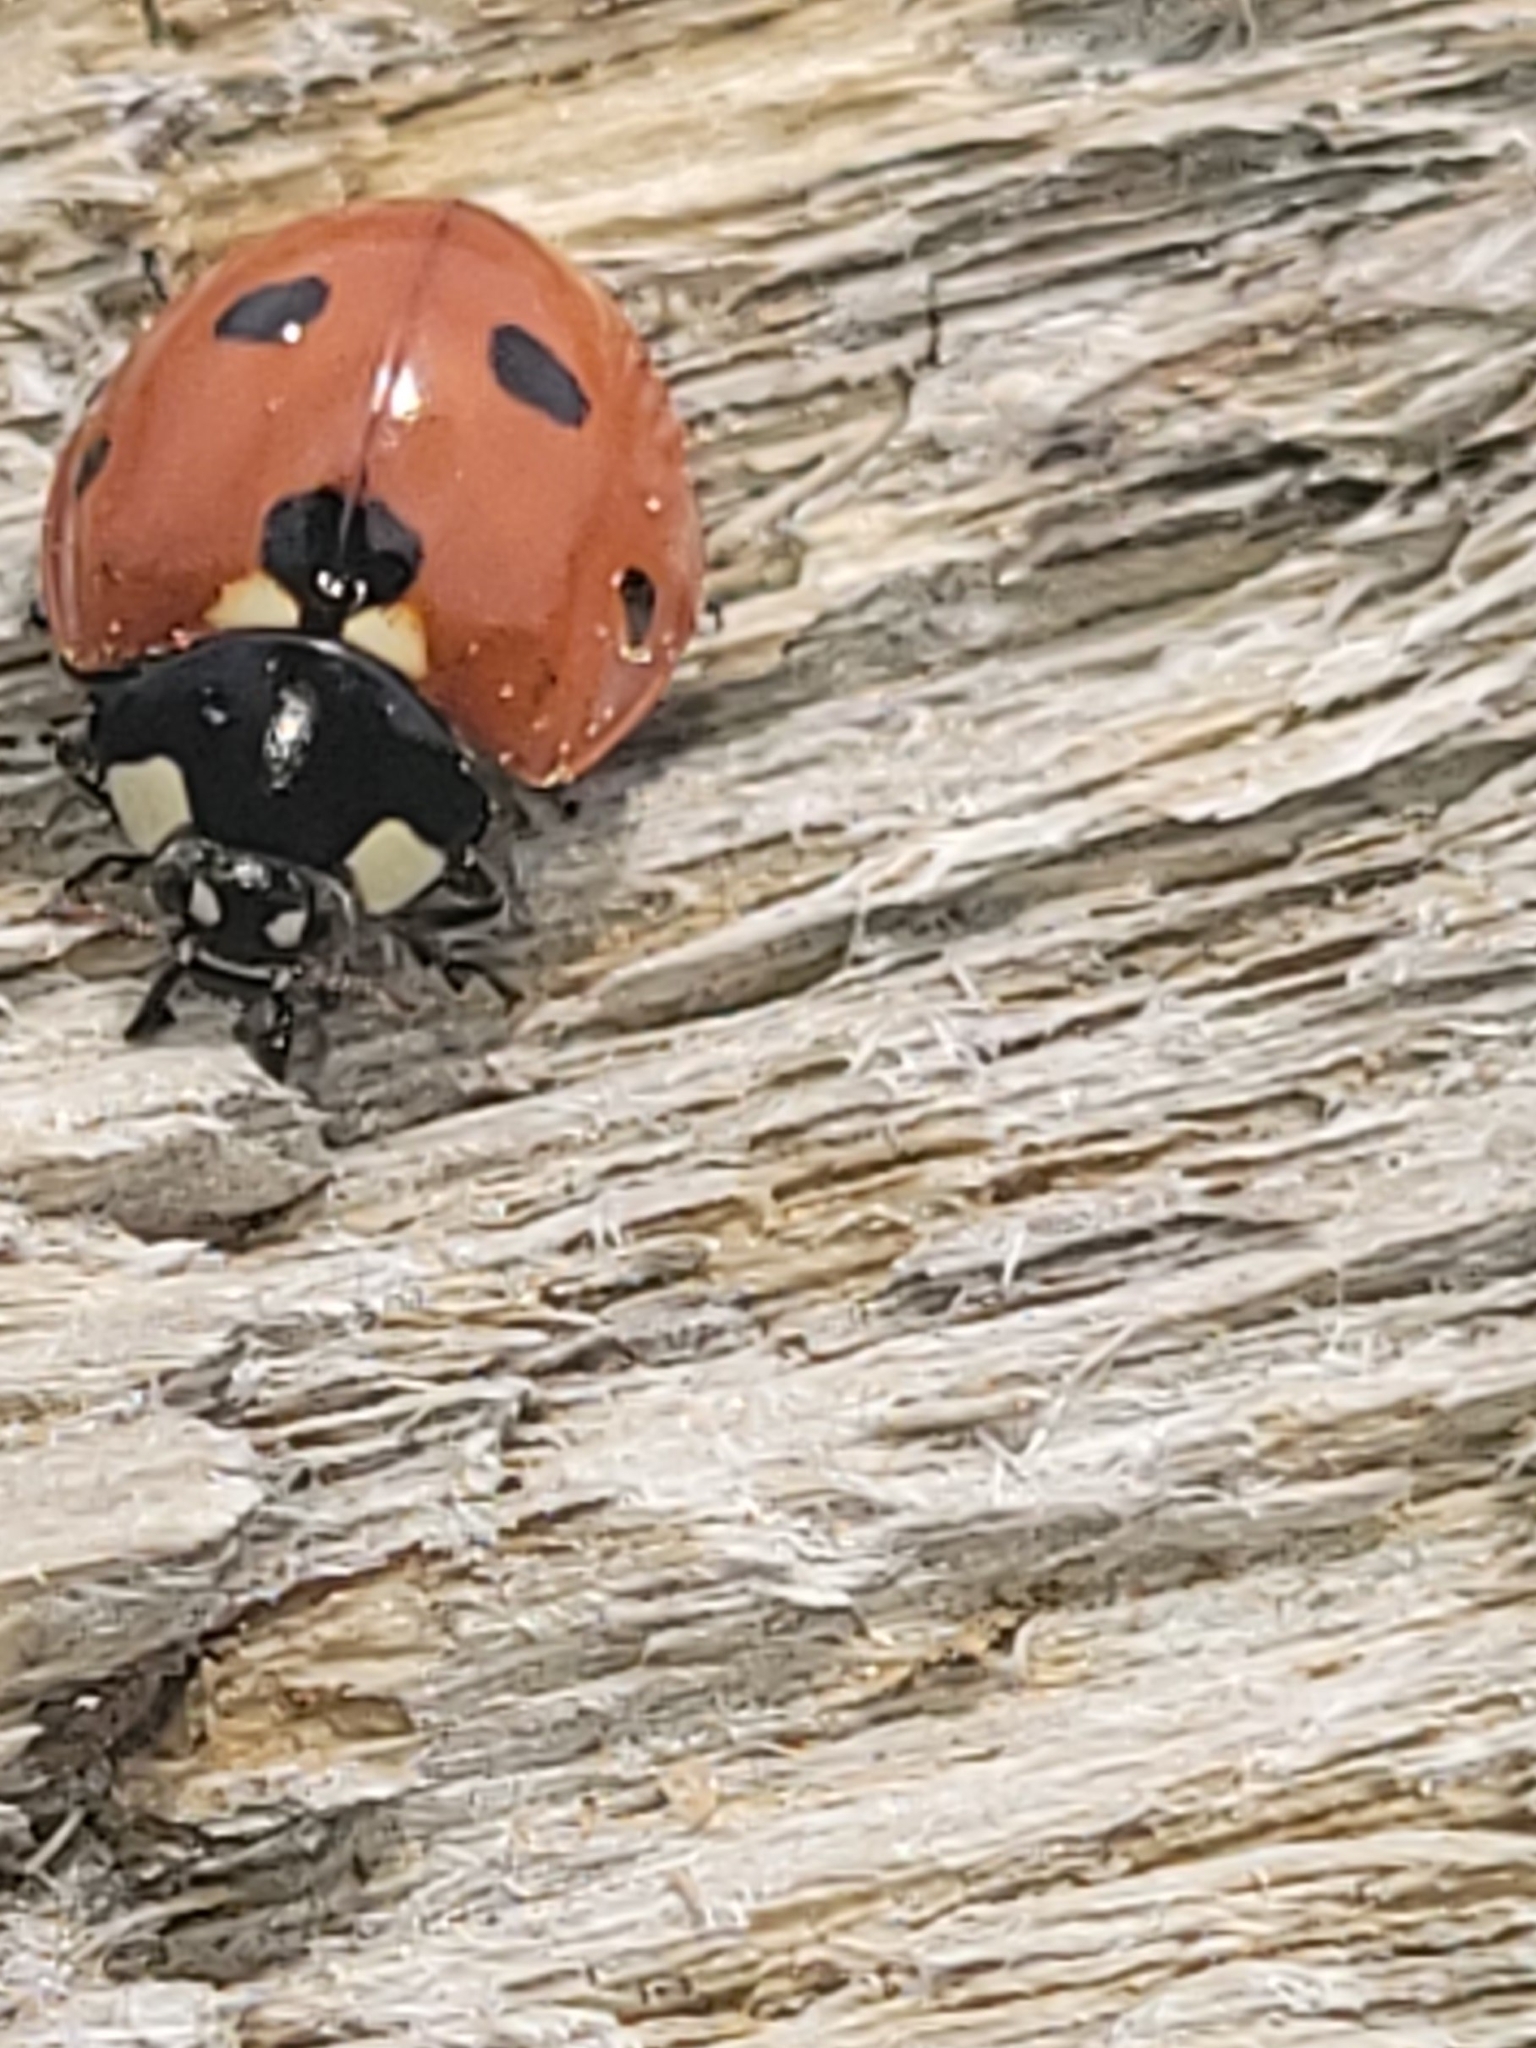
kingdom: Animalia
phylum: Arthropoda
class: Insecta
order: Coleoptera
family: Coccinellidae
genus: Coccinella
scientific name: Coccinella septempunctata
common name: Sevenspotted lady beetle
